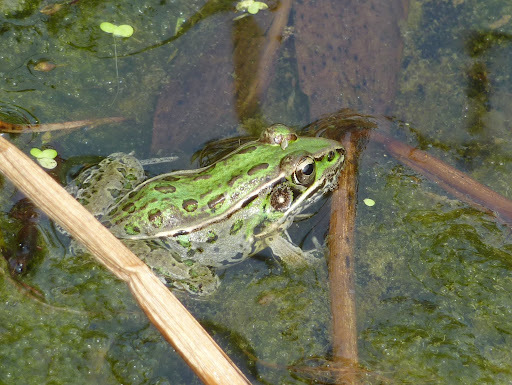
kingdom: Animalia
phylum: Chordata
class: Amphibia
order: Anura
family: Ranidae
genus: Lithobates
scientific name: Lithobates sphenocephalus
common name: Southern leopard frog
